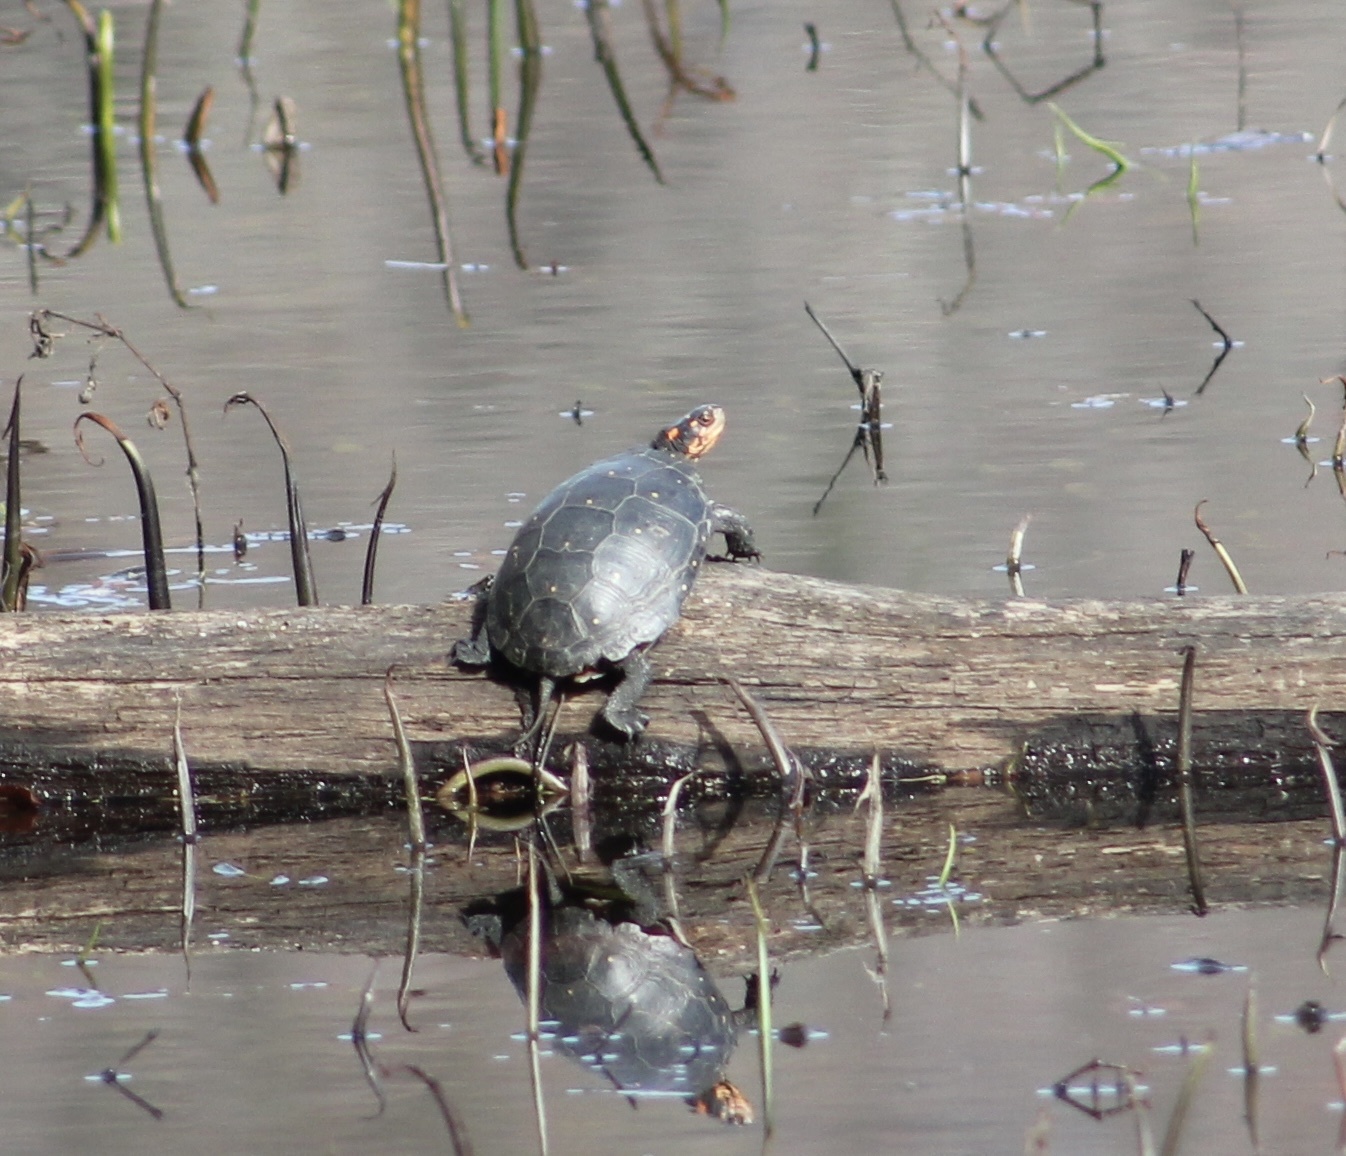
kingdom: Animalia
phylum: Chordata
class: Testudines
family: Emydidae
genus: Clemmys
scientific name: Clemmys guttata
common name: Spotted turtle
